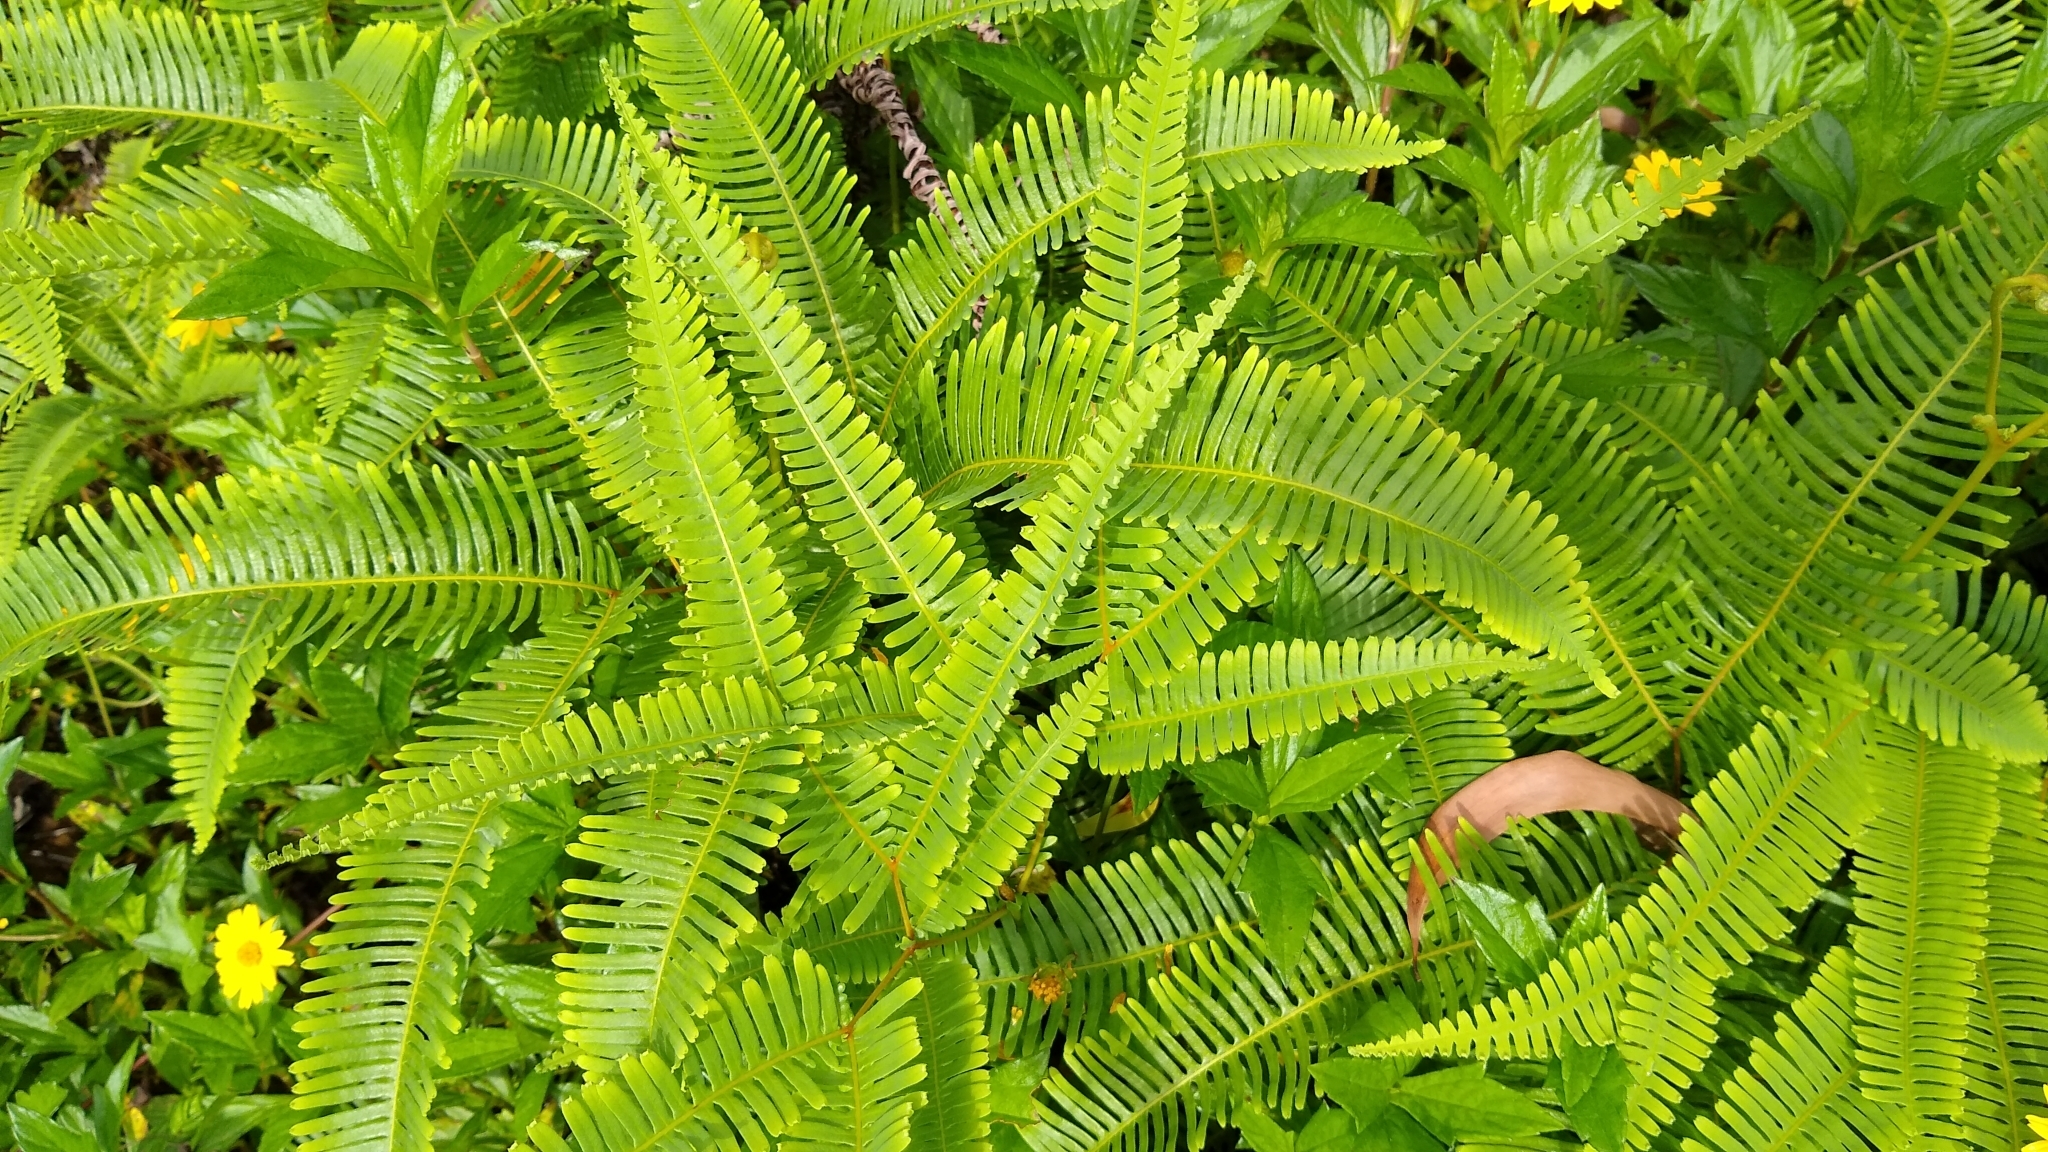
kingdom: Plantae
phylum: Tracheophyta
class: Polypodiopsida
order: Gleicheniales
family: Gleicheniaceae
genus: Dicranopteris
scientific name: Dicranopteris linearis
